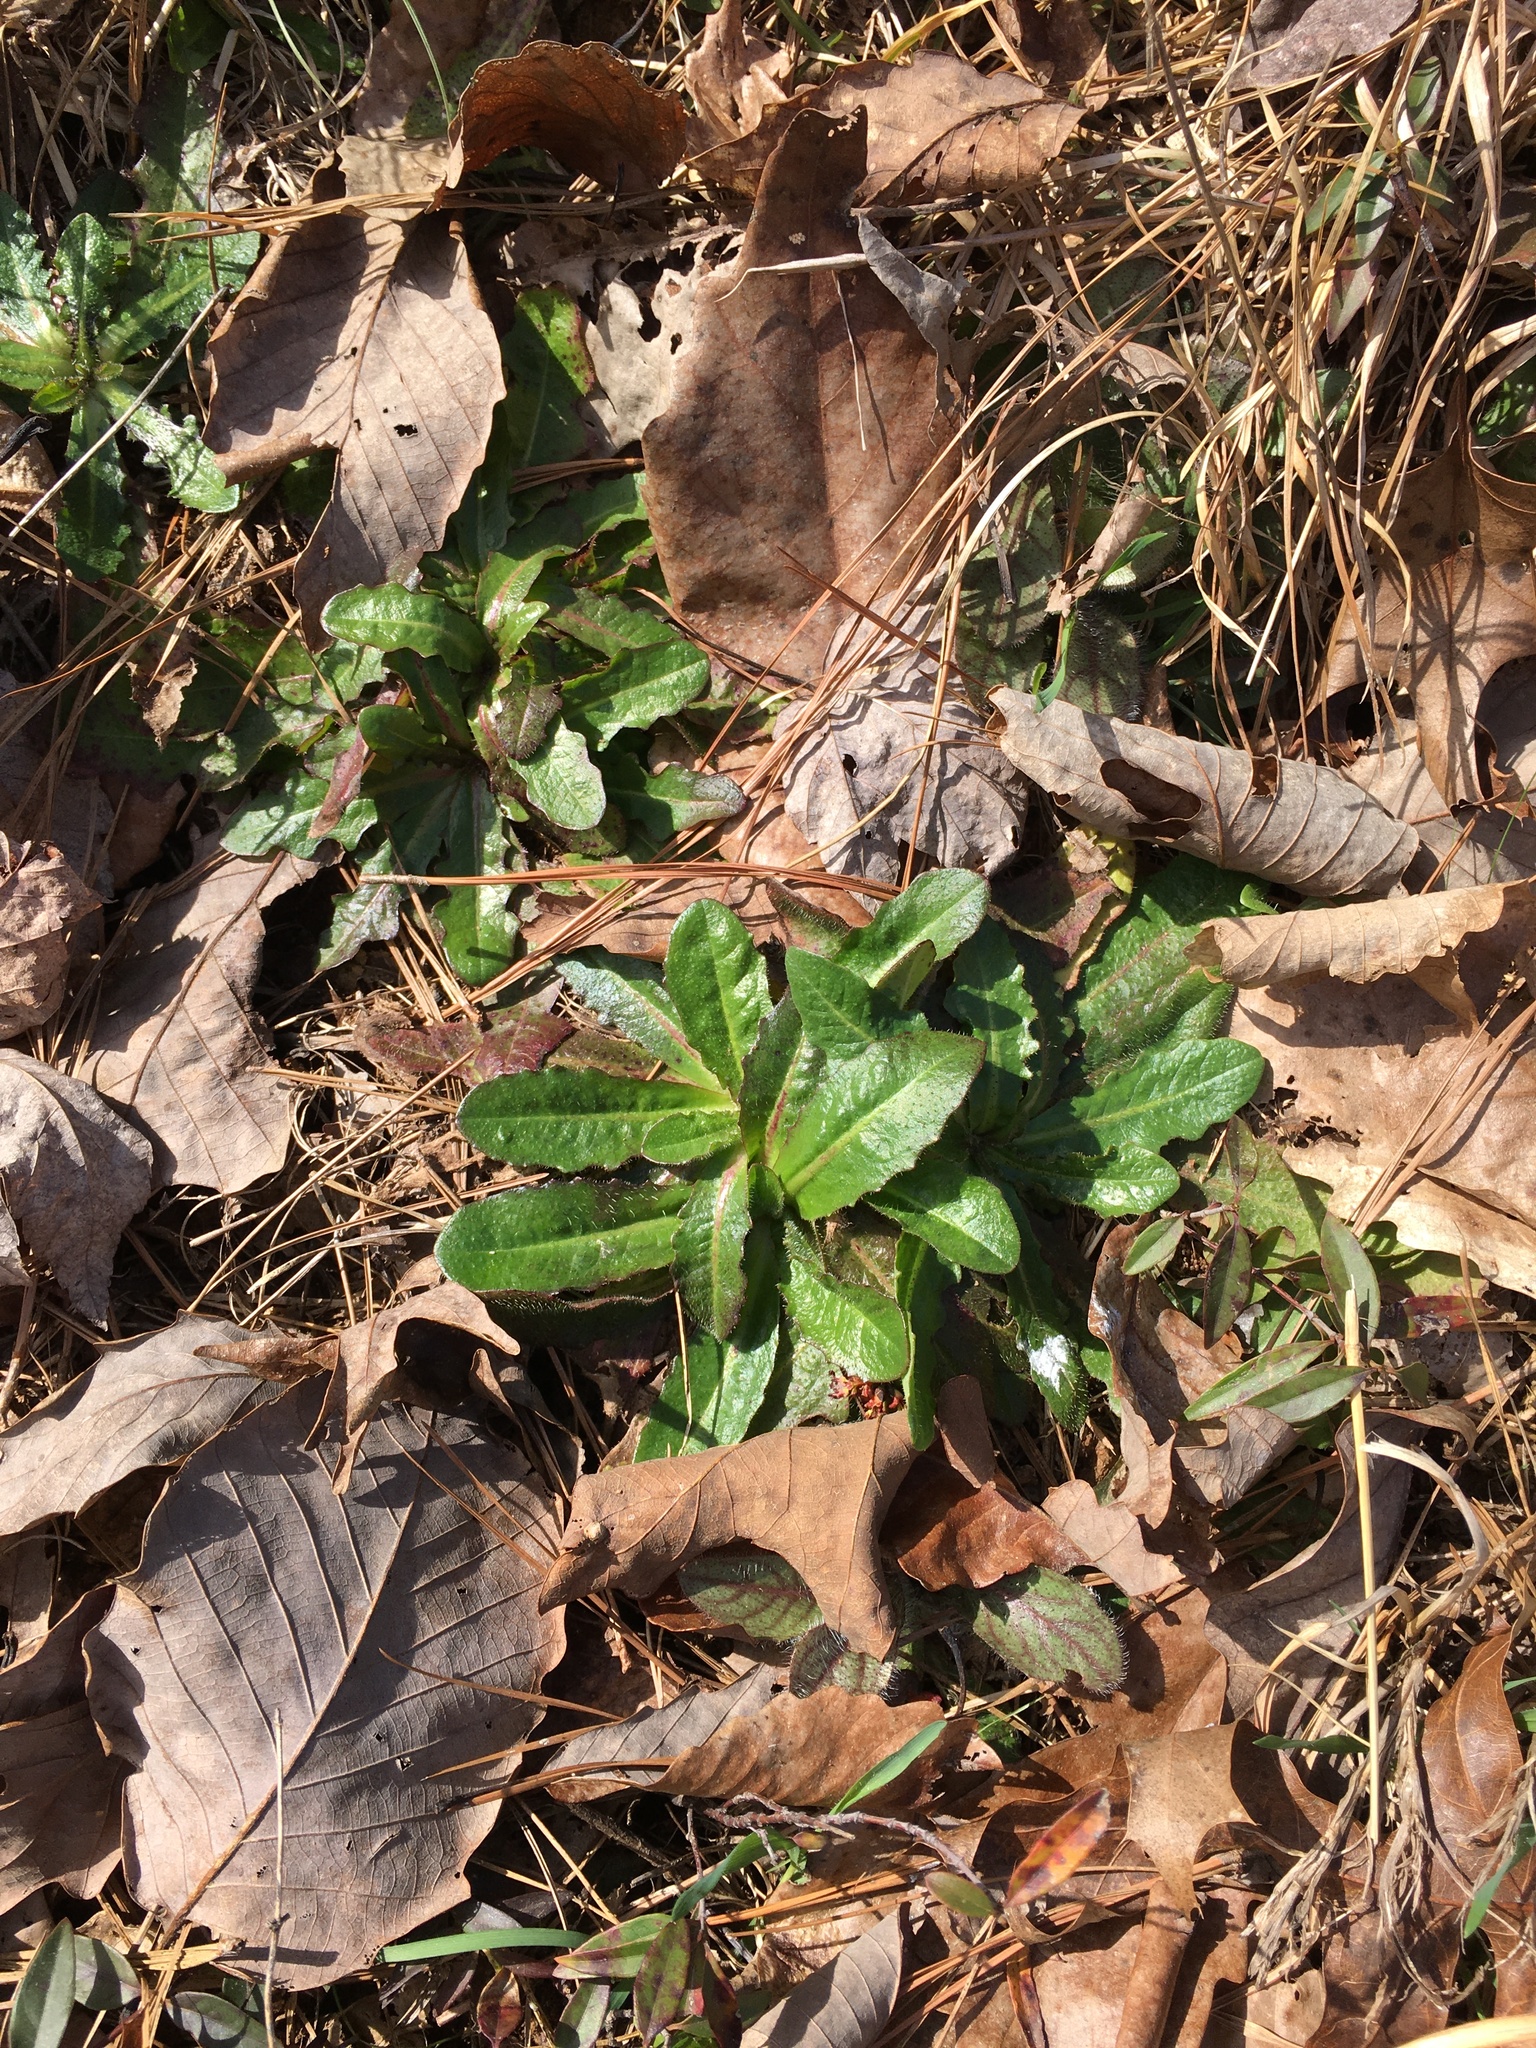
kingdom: Plantae
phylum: Tracheophyta
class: Magnoliopsida
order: Asterales
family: Asteraceae
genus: Hypochaeris
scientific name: Hypochaeris radicata
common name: Flatweed
